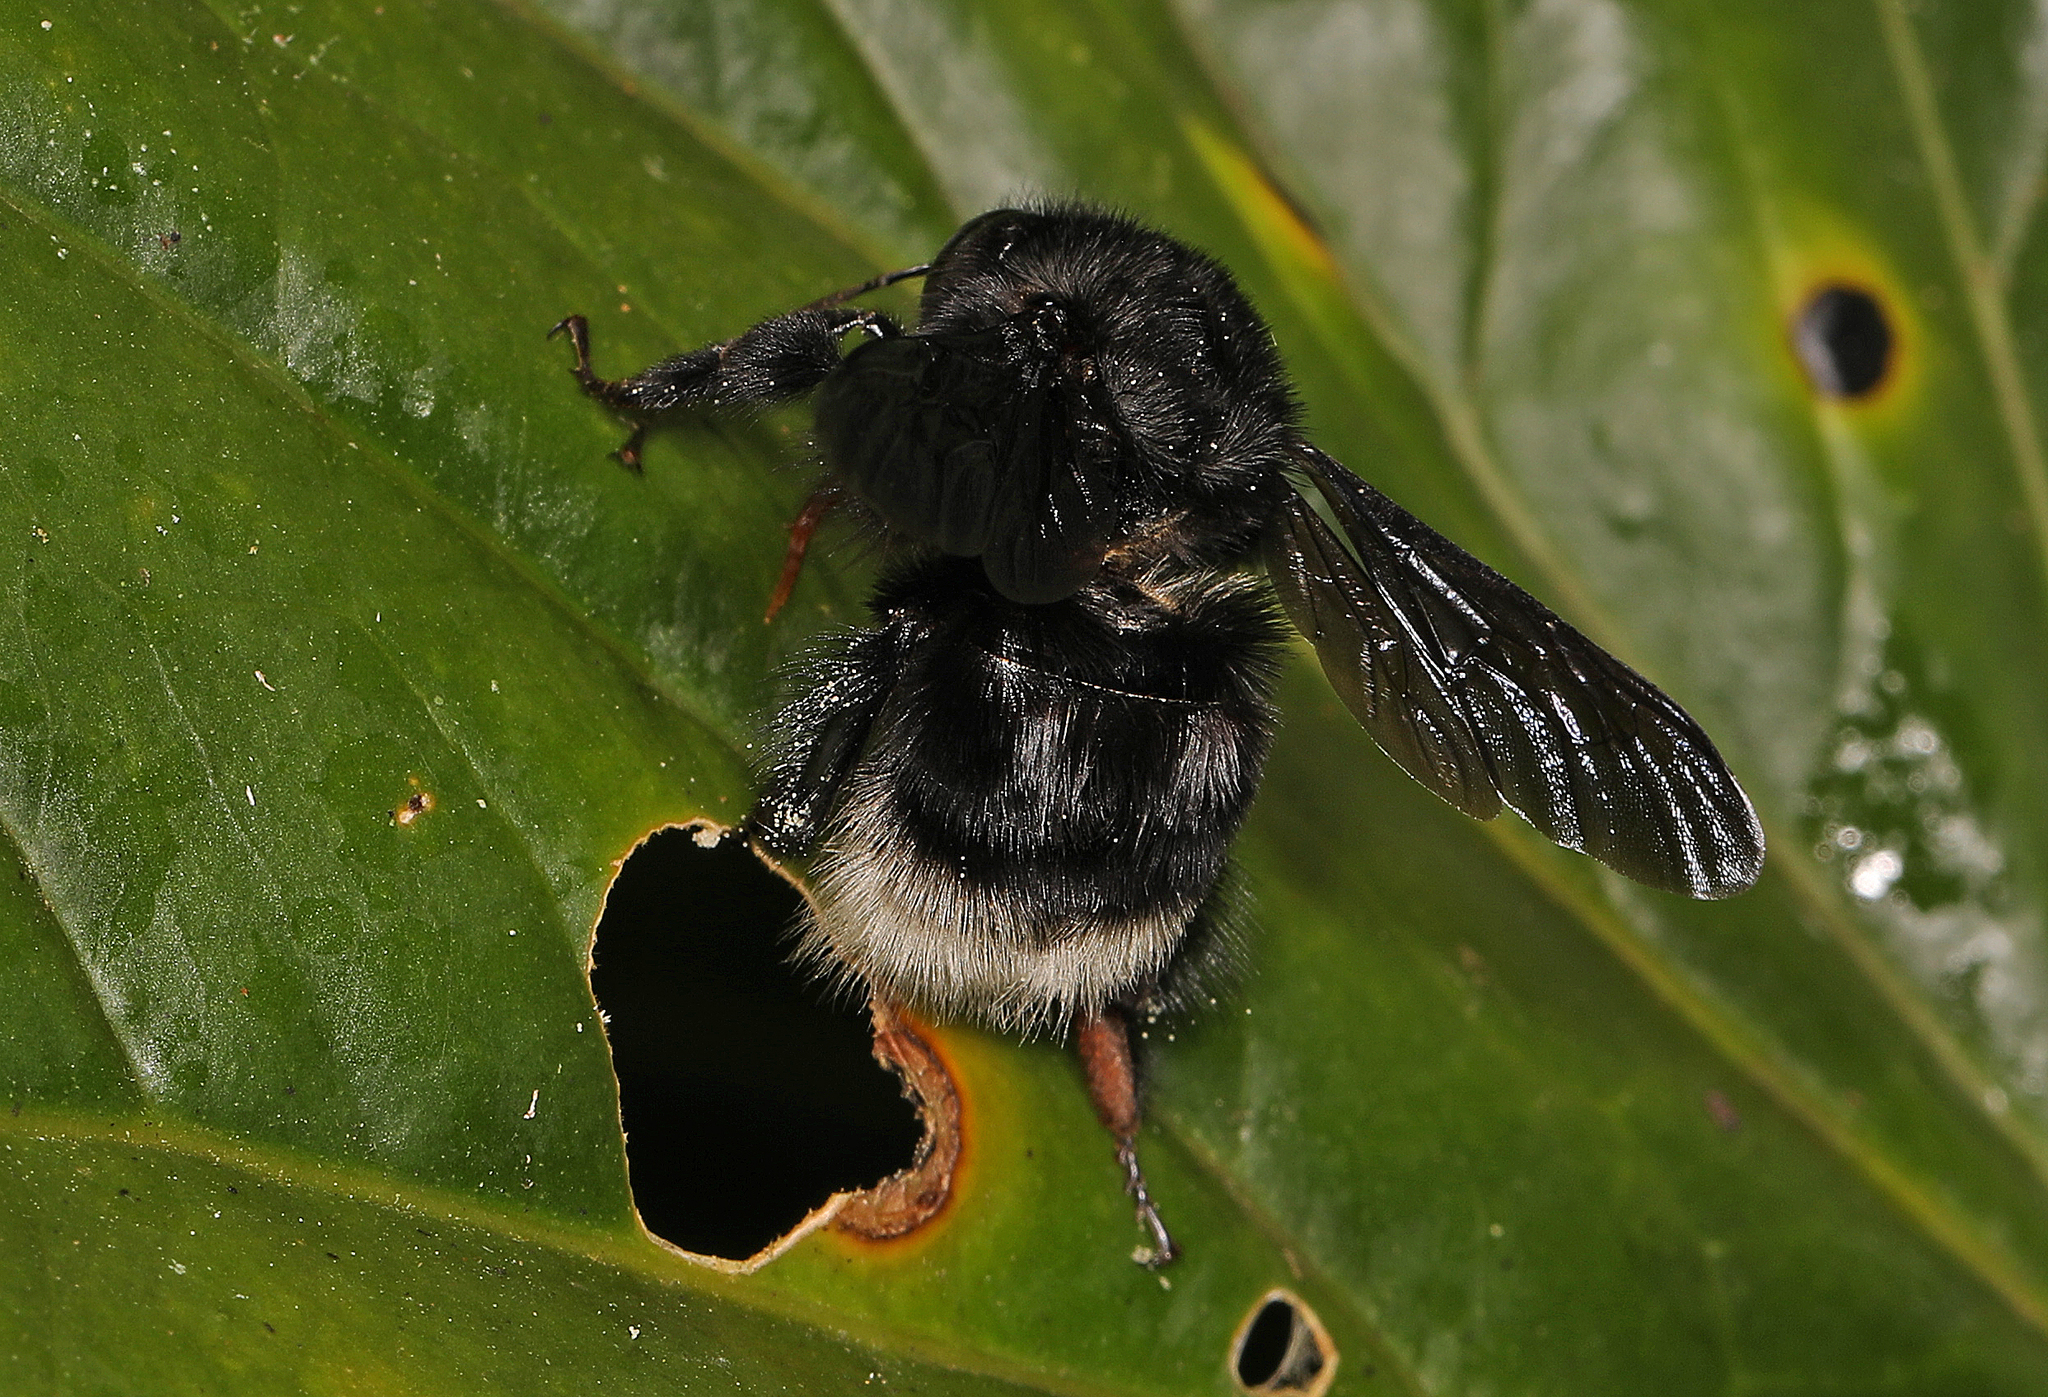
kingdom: Animalia
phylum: Arthropoda
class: Insecta
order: Hymenoptera
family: Apidae
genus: Bombus
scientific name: Bombus melaleucus
